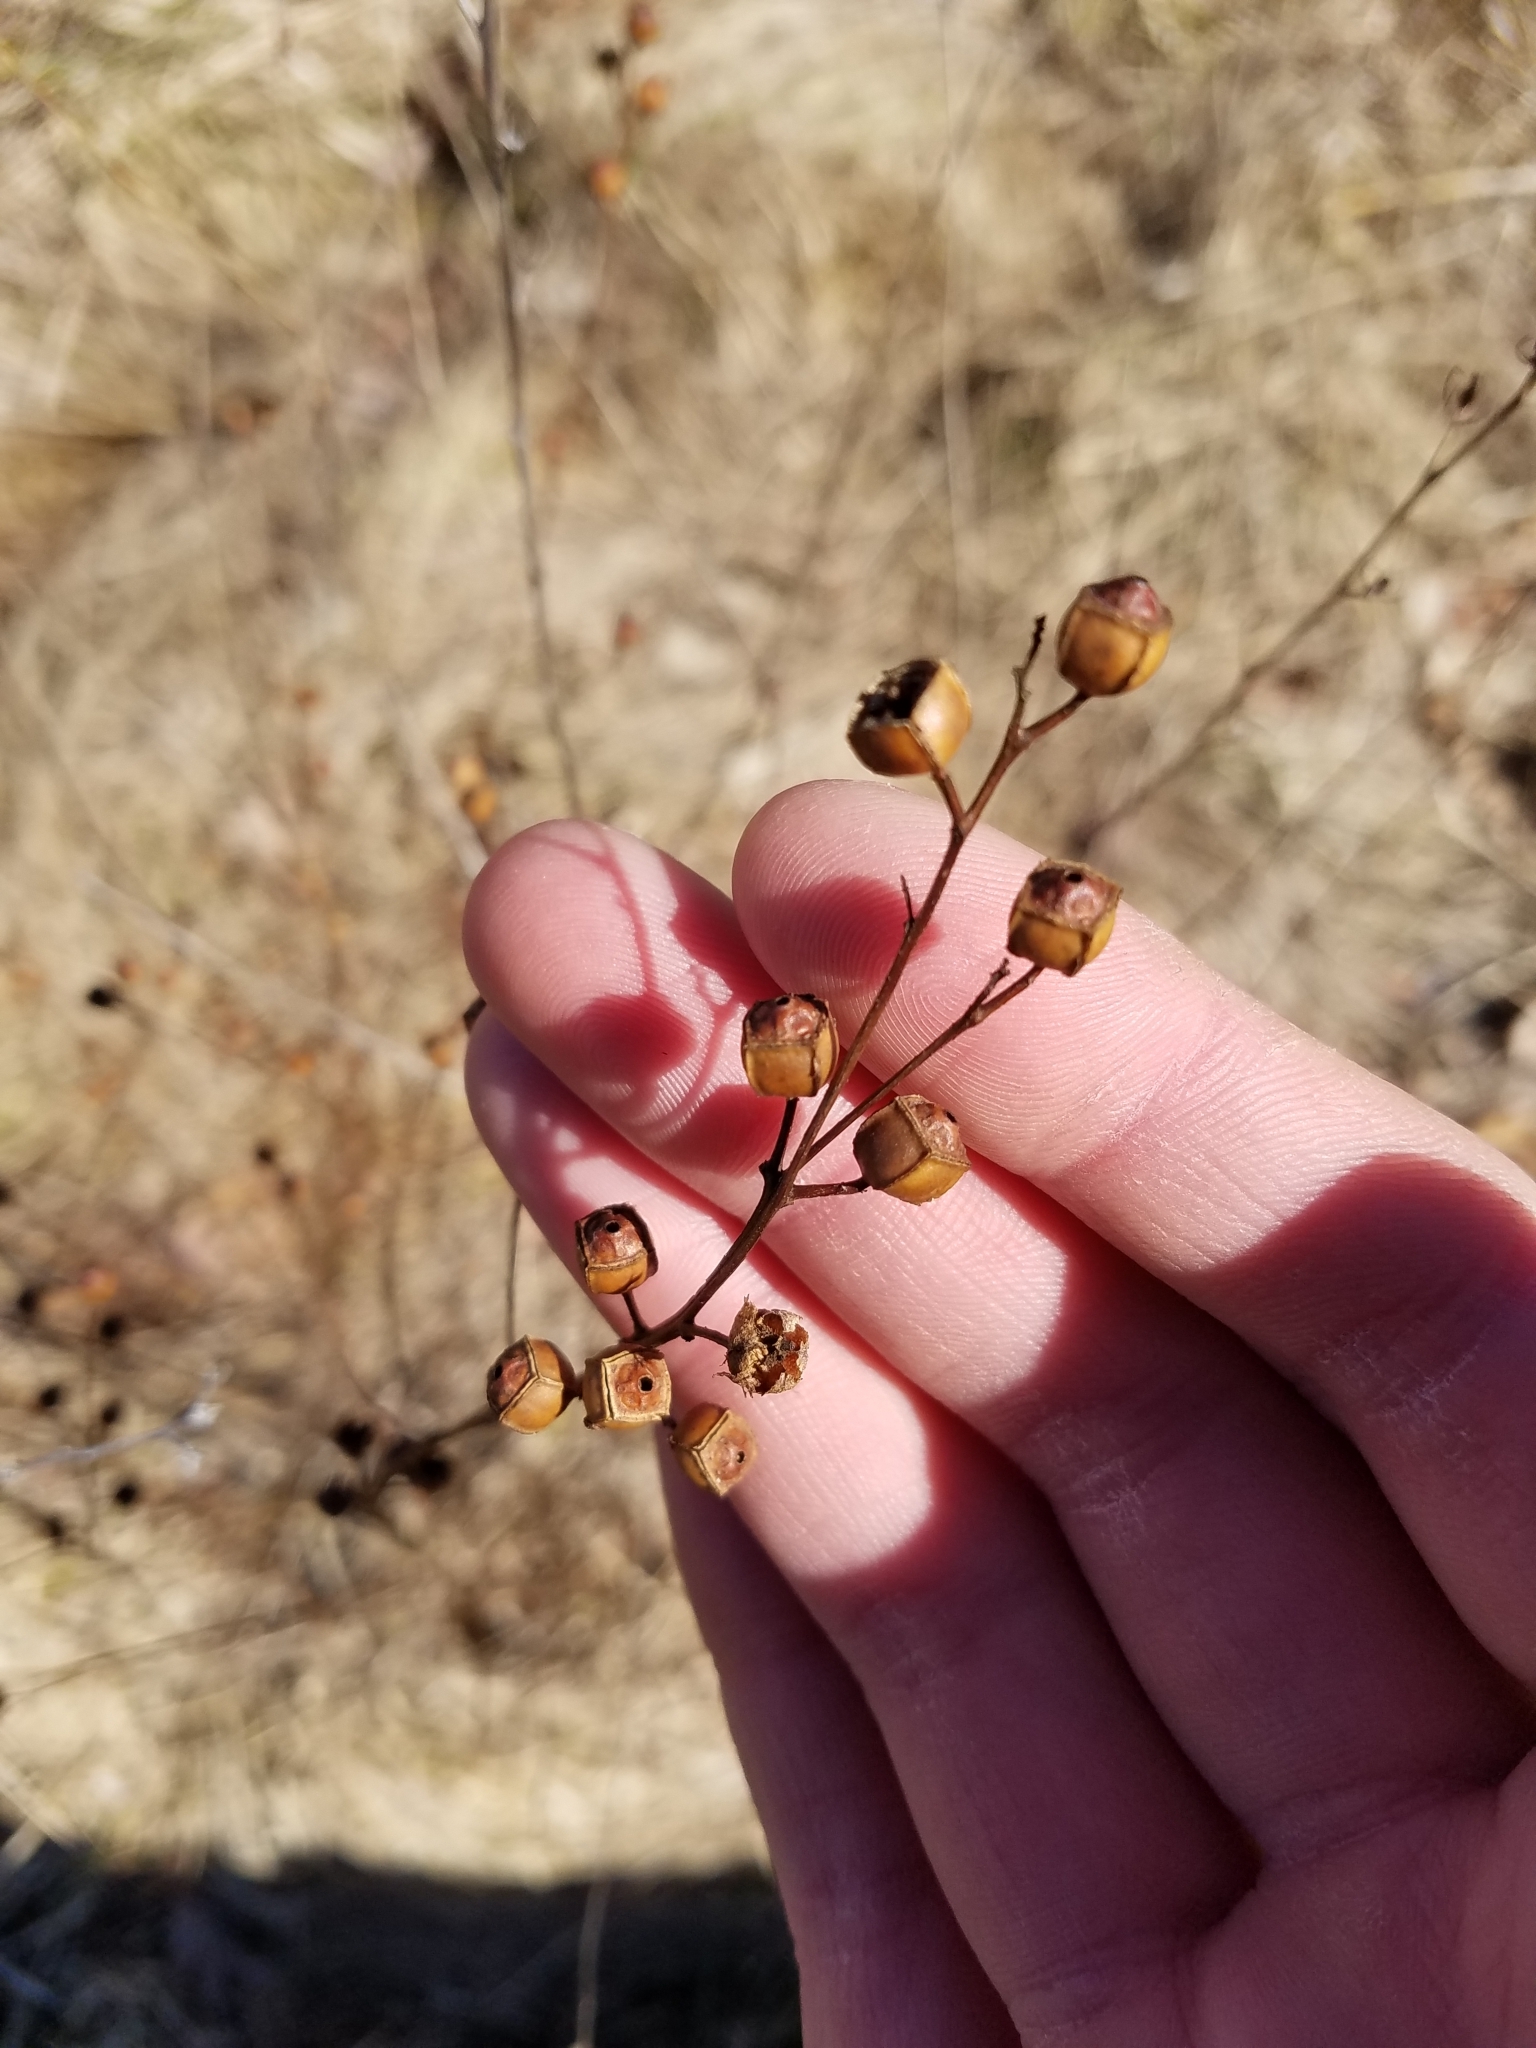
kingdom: Plantae
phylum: Tracheophyta
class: Magnoliopsida
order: Myrtales
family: Onagraceae
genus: Ludwigia
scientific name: Ludwigia alternifolia
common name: Rattlebox
